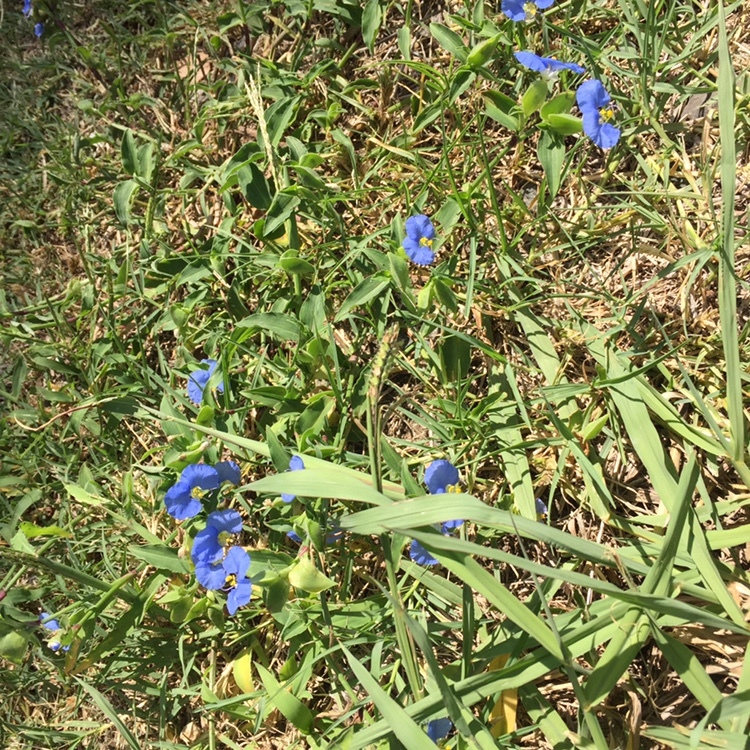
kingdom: Plantae
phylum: Tracheophyta
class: Liliopsida
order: Commelinales
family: Commelinaceae
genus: Commelina
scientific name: Commelina erecta
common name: Blousel blommetjie
